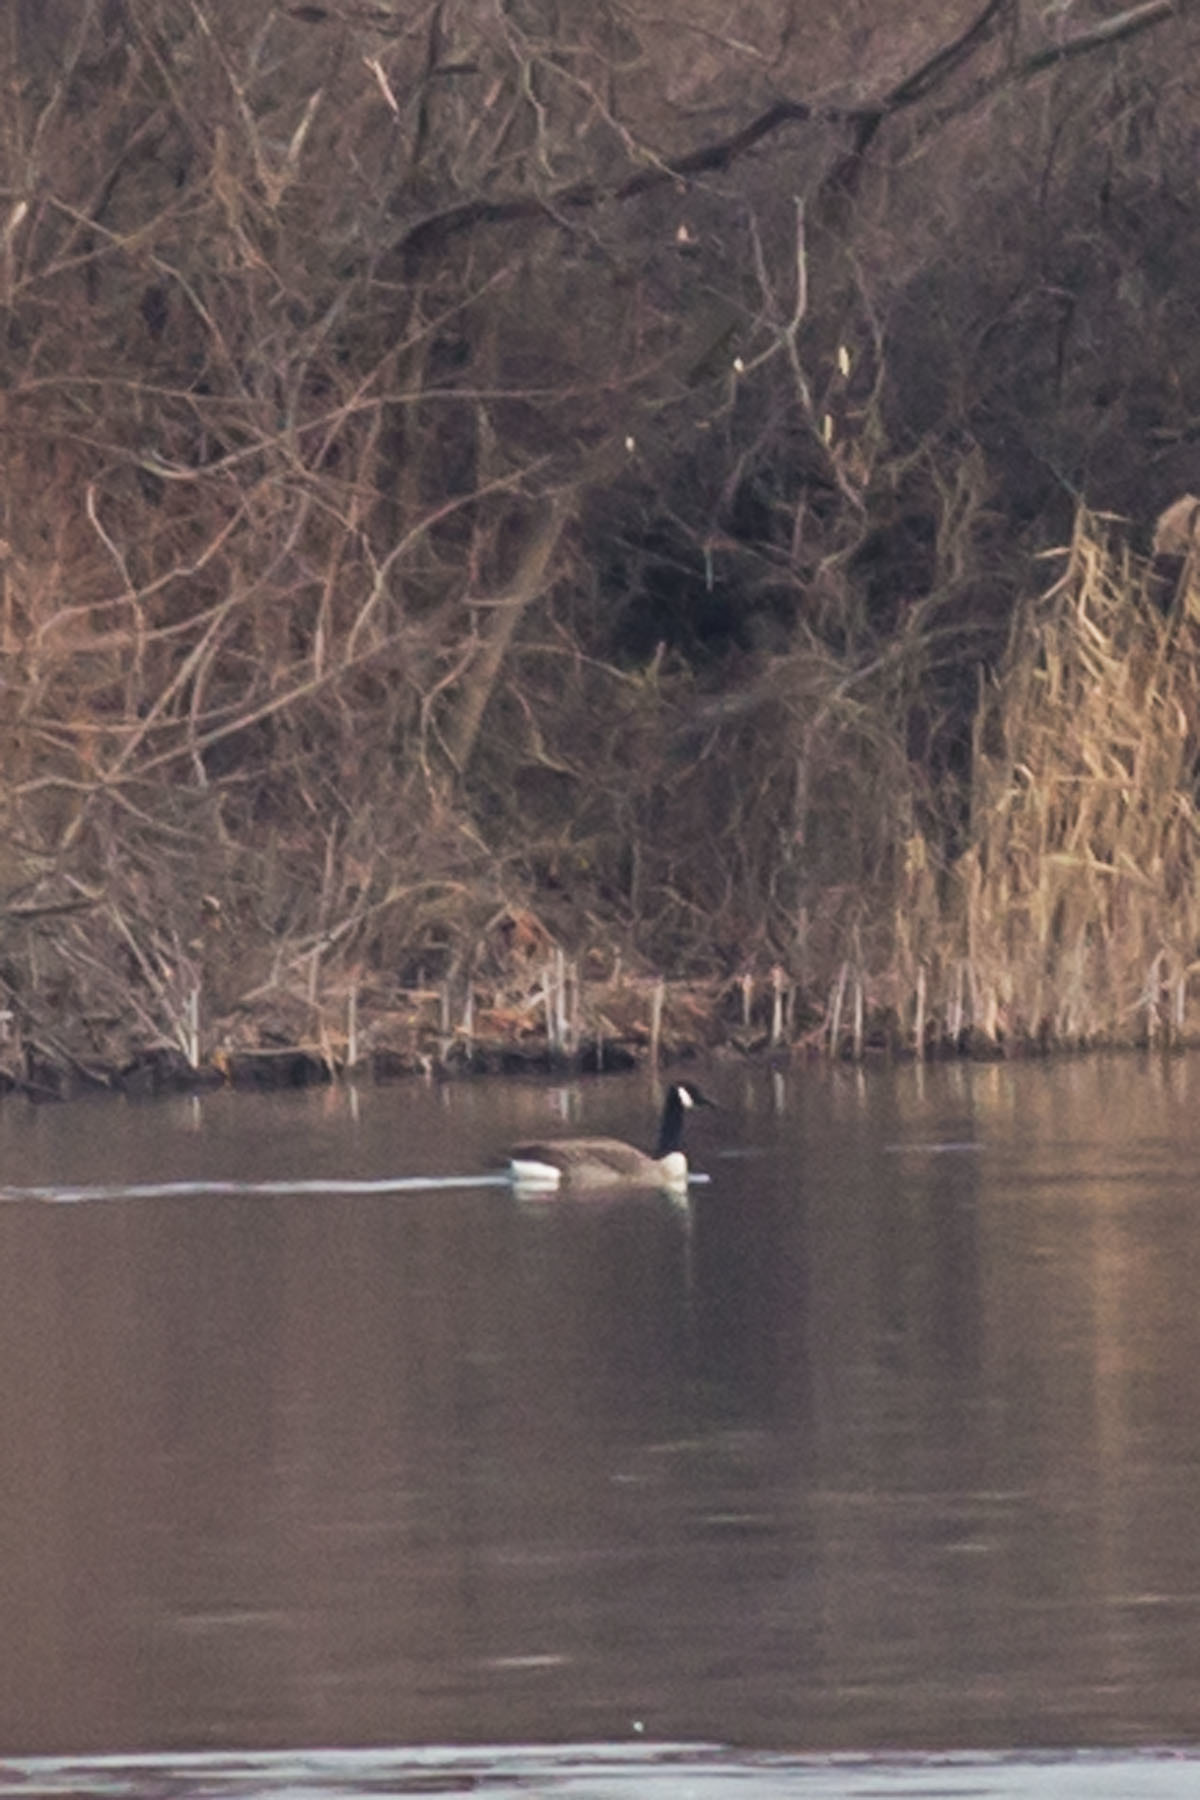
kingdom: Animalia
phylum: Chordata
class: Aves
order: Anseriformes
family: Anatidae
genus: Branta
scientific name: Branta canadensis
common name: Canada goose
